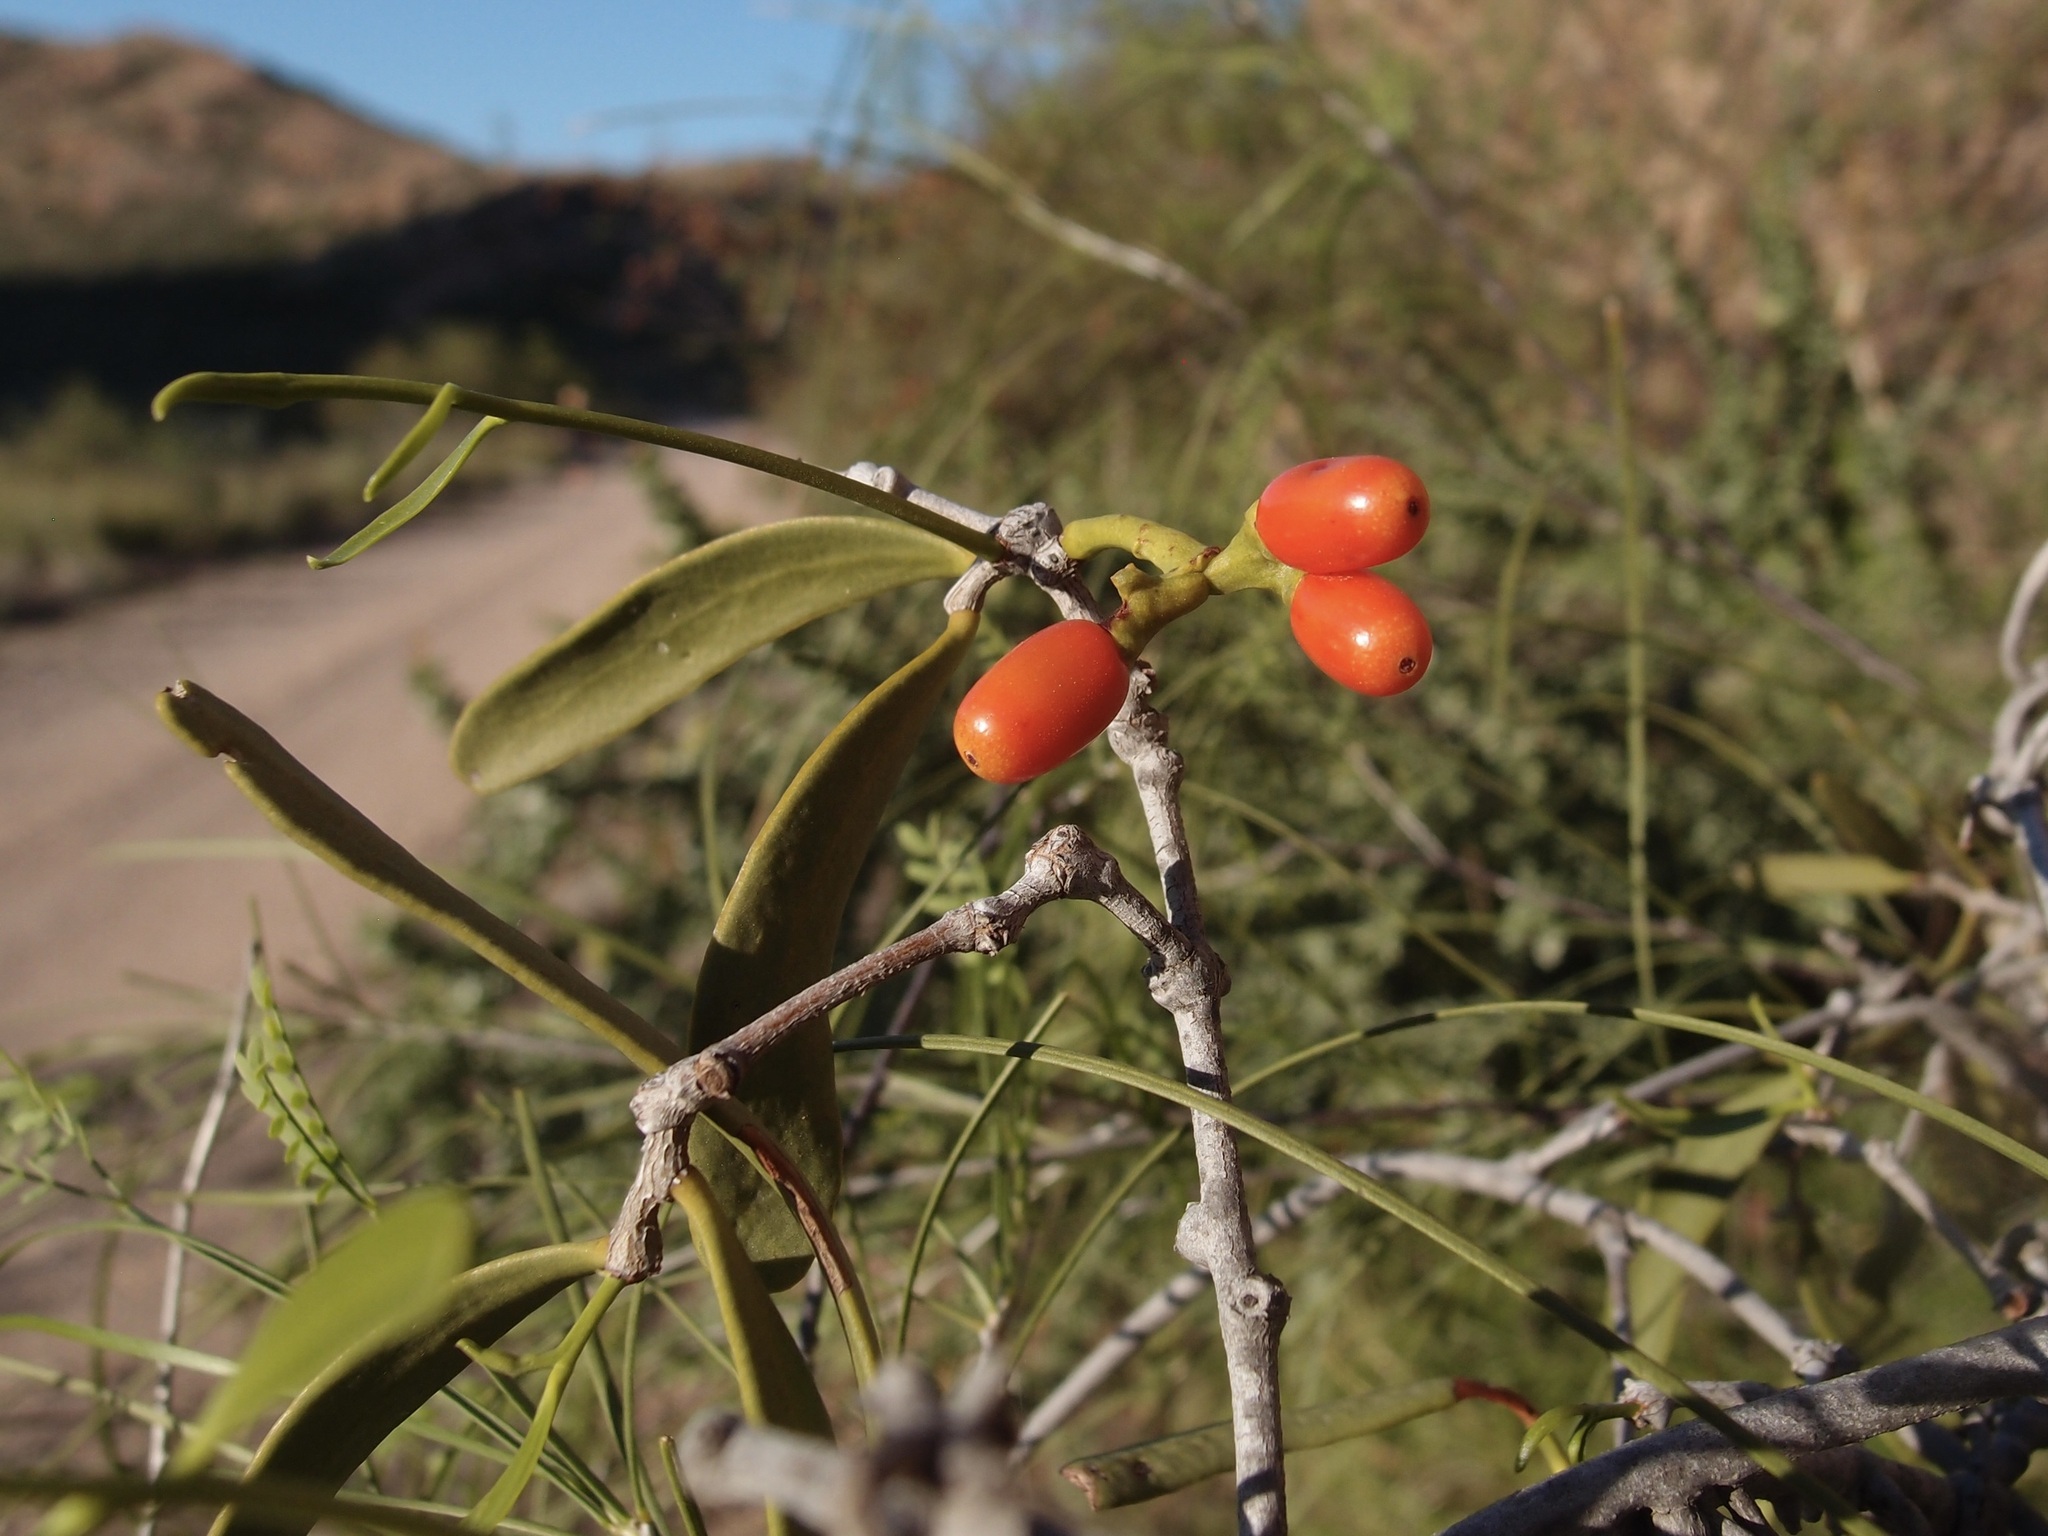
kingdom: Plantae
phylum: Tracheophyta
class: Magnoliopsida
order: Santalales
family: Loranthaceae
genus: Struthanthus
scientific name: Struthanthus palmeri
